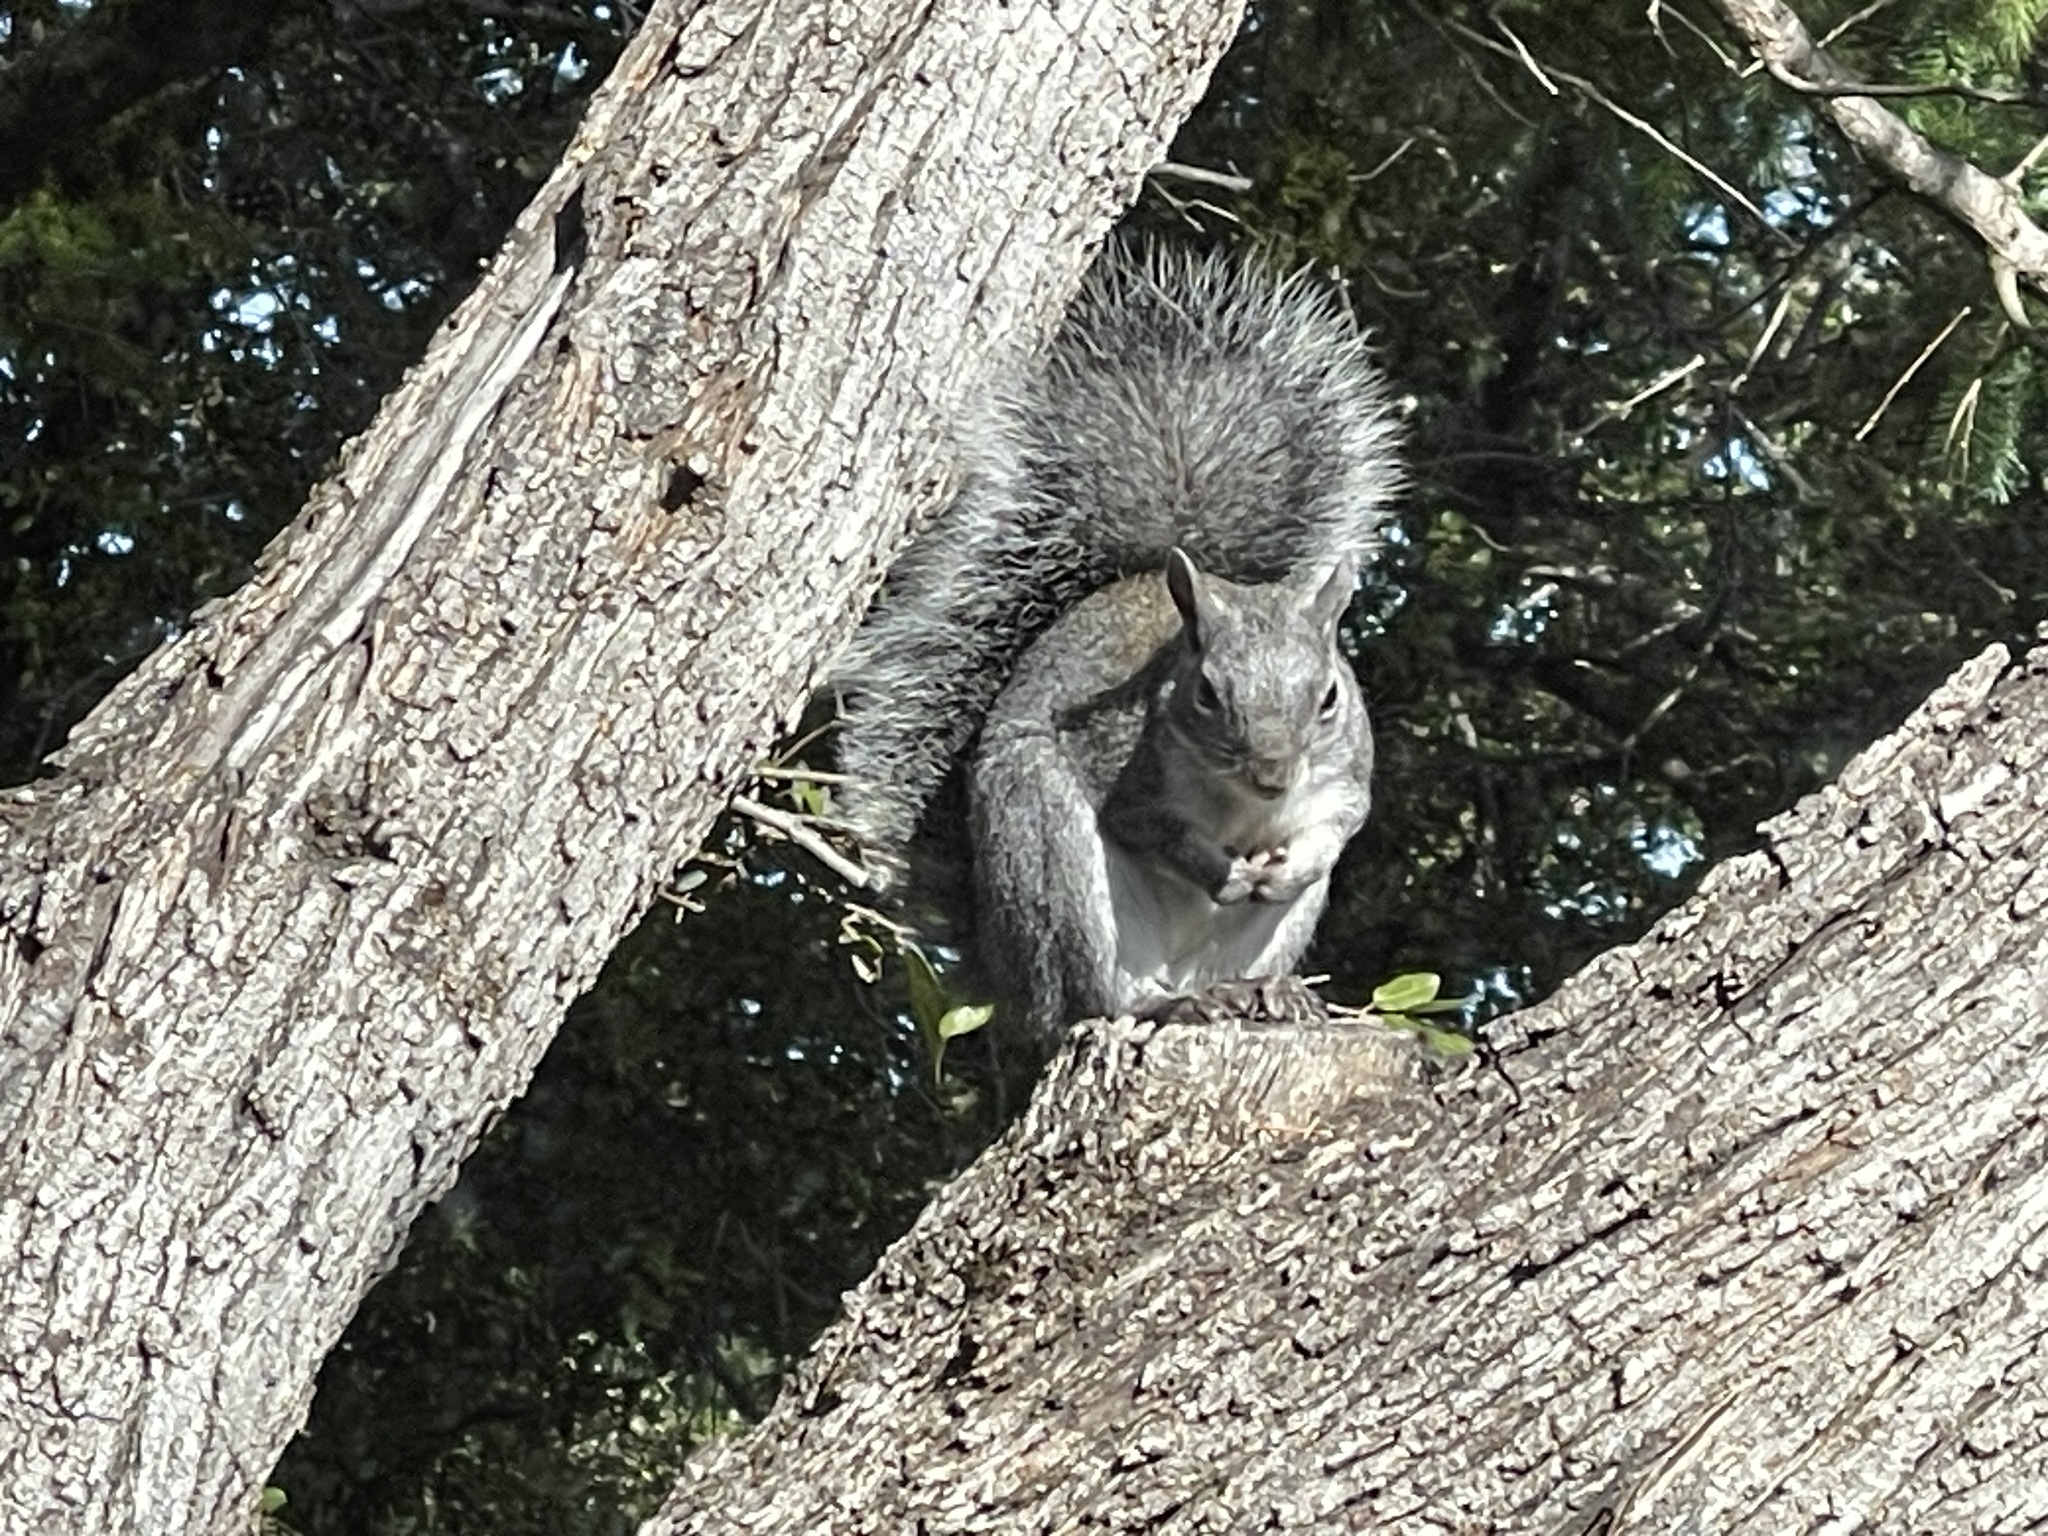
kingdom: Animalia
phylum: Chordata
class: Mammalia
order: Rodentia
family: Sciuridae
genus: Sciurus
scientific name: Sciurus griseus
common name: Western gray squirrel
